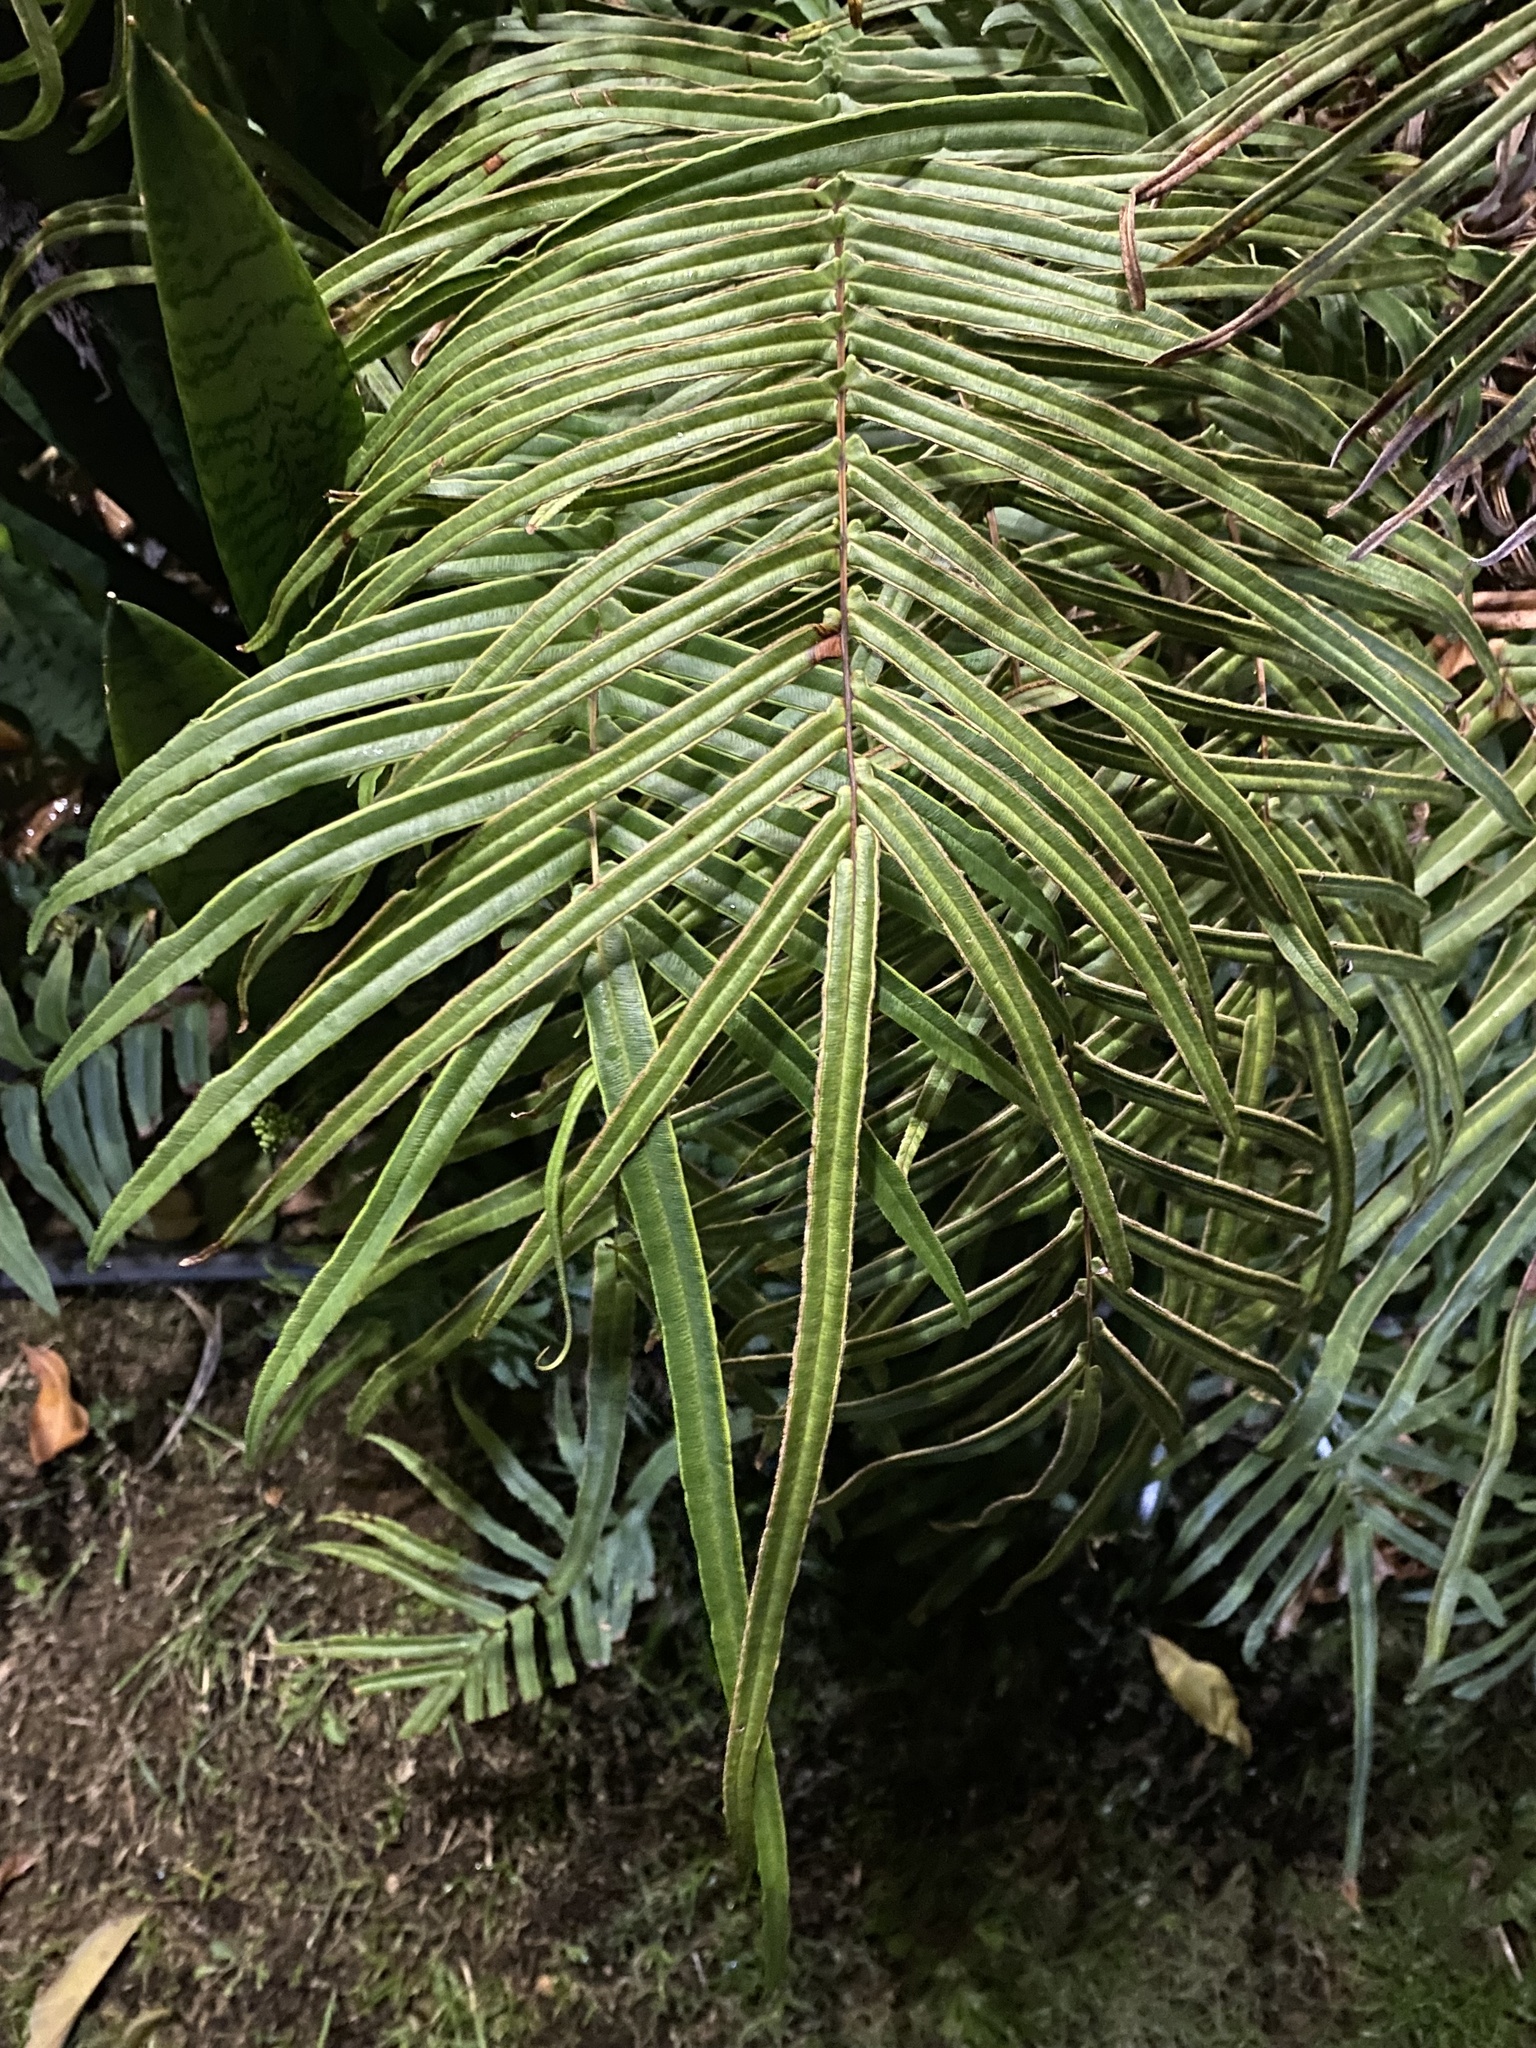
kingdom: Plantae
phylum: Tracheophyta
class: Polypodiopsida
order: Polypodiales
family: Pteridaceae
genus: Pteris
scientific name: Pteris vittata
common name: Ladder brake
